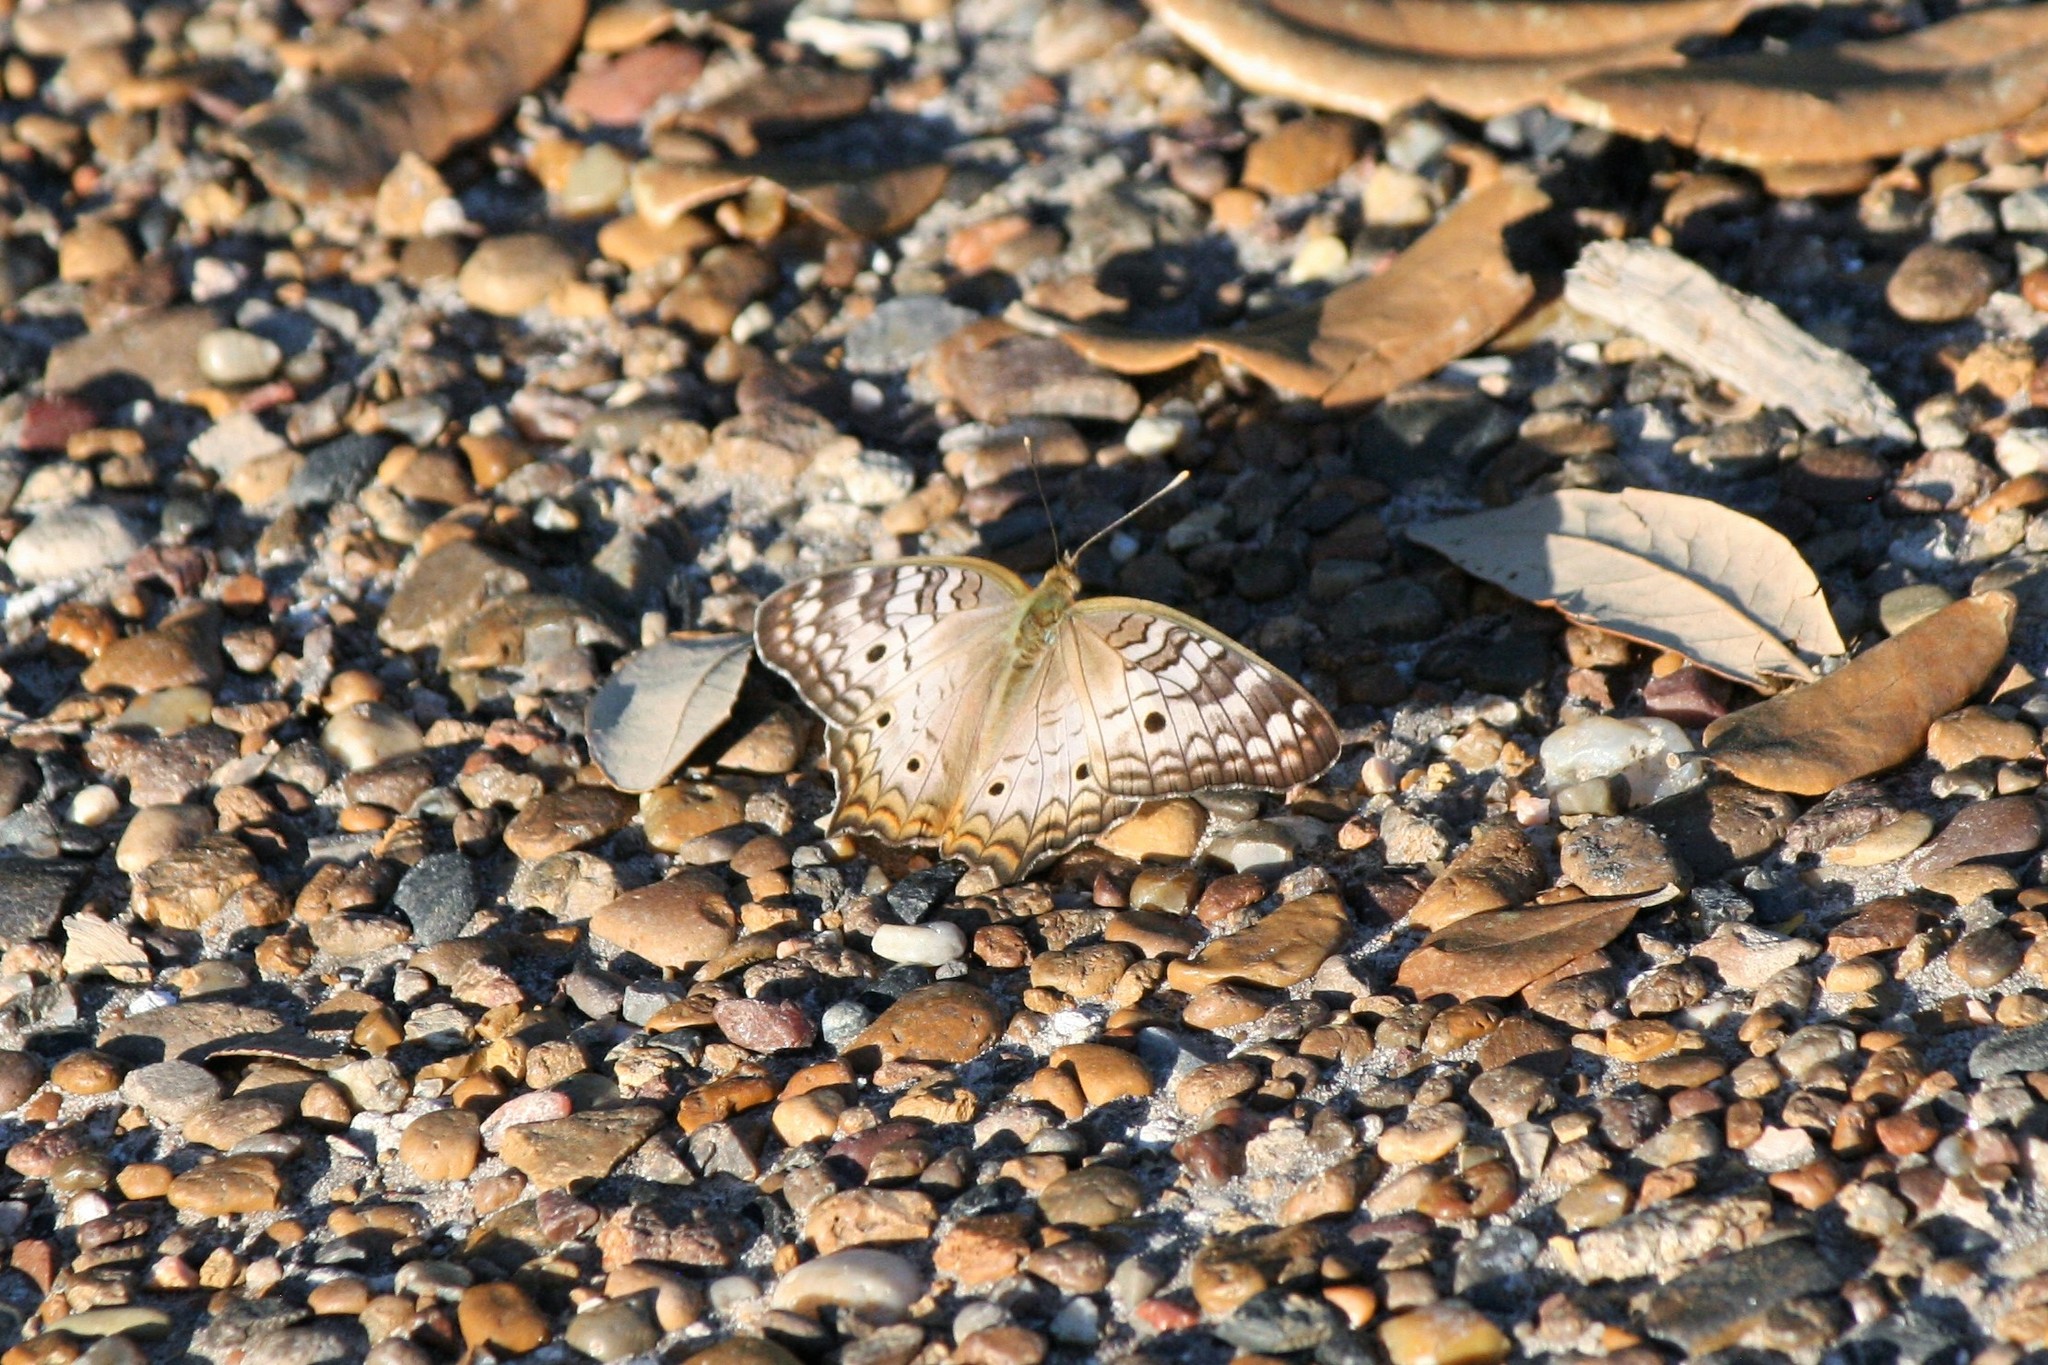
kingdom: Animalia
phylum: Arthropoda
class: Insecta
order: Lepidoptera
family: Nymphalidae
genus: Anartia
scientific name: Anartia jatrophae
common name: White peacock
